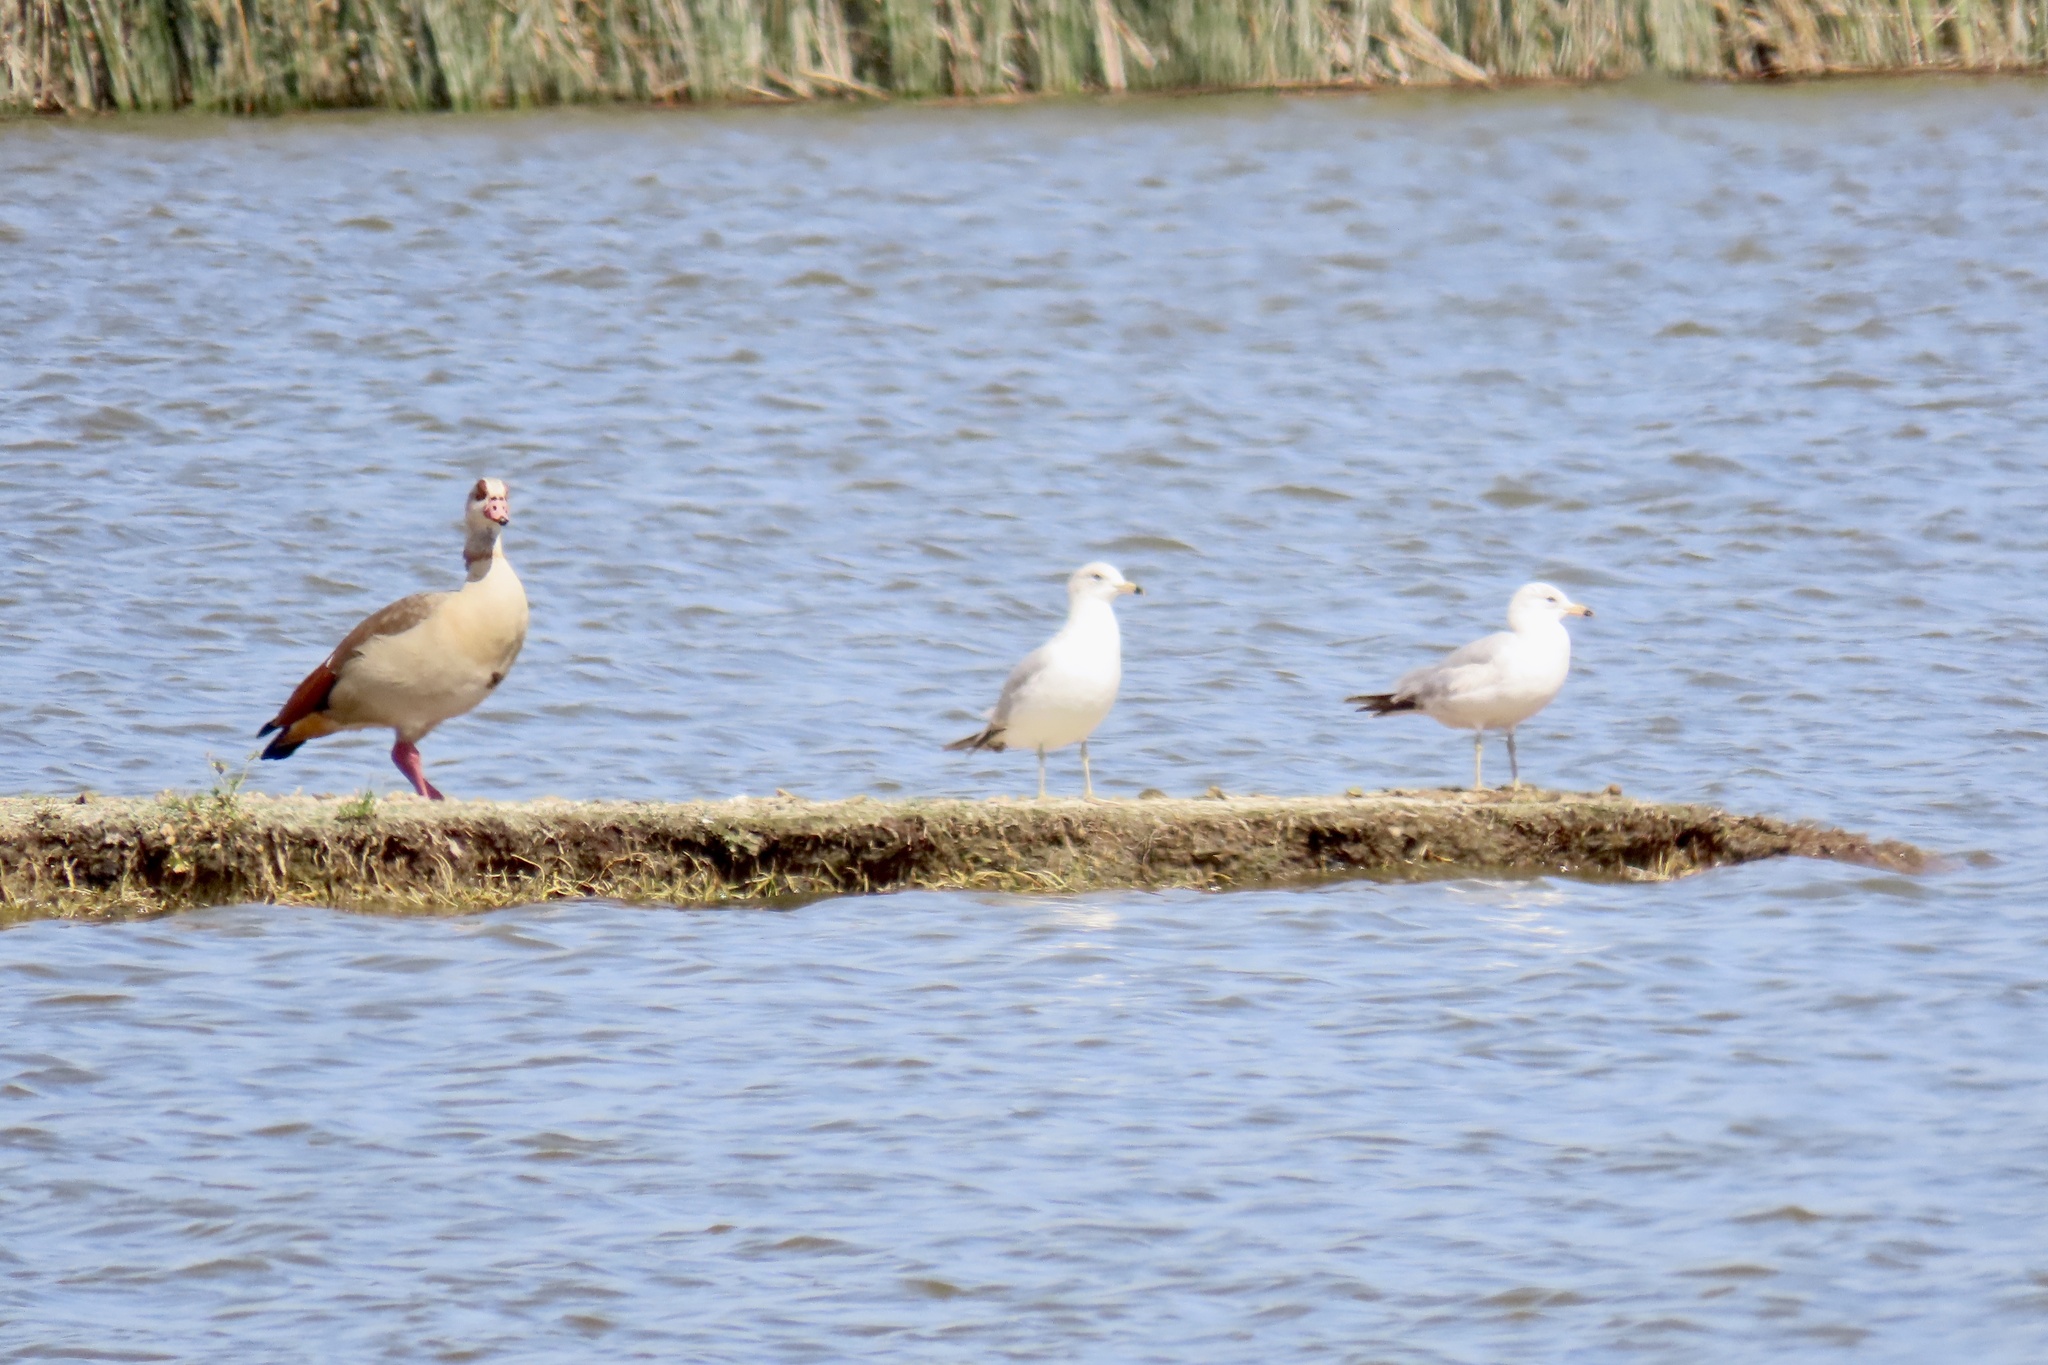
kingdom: Animalia
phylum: Chordata
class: Aves
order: Anseriformes
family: Anatidae
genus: Alopochen
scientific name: Alopochen aegyptiaca
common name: Egyptian goose
